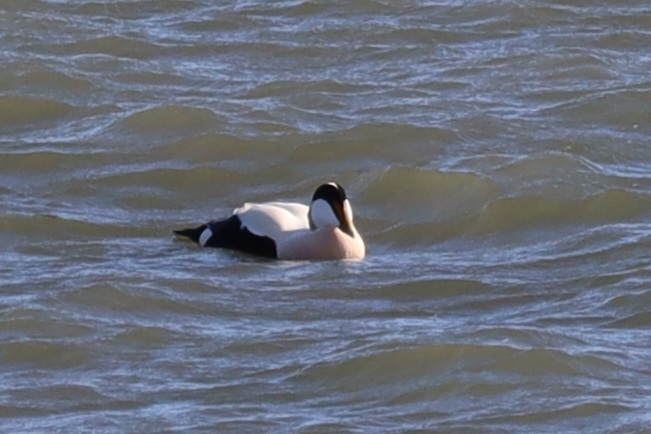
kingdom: Animalia
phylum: Chordata
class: Aves
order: Anseriformes
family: Anatidae
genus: Somateria
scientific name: Somateria mollissima
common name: Common eider
